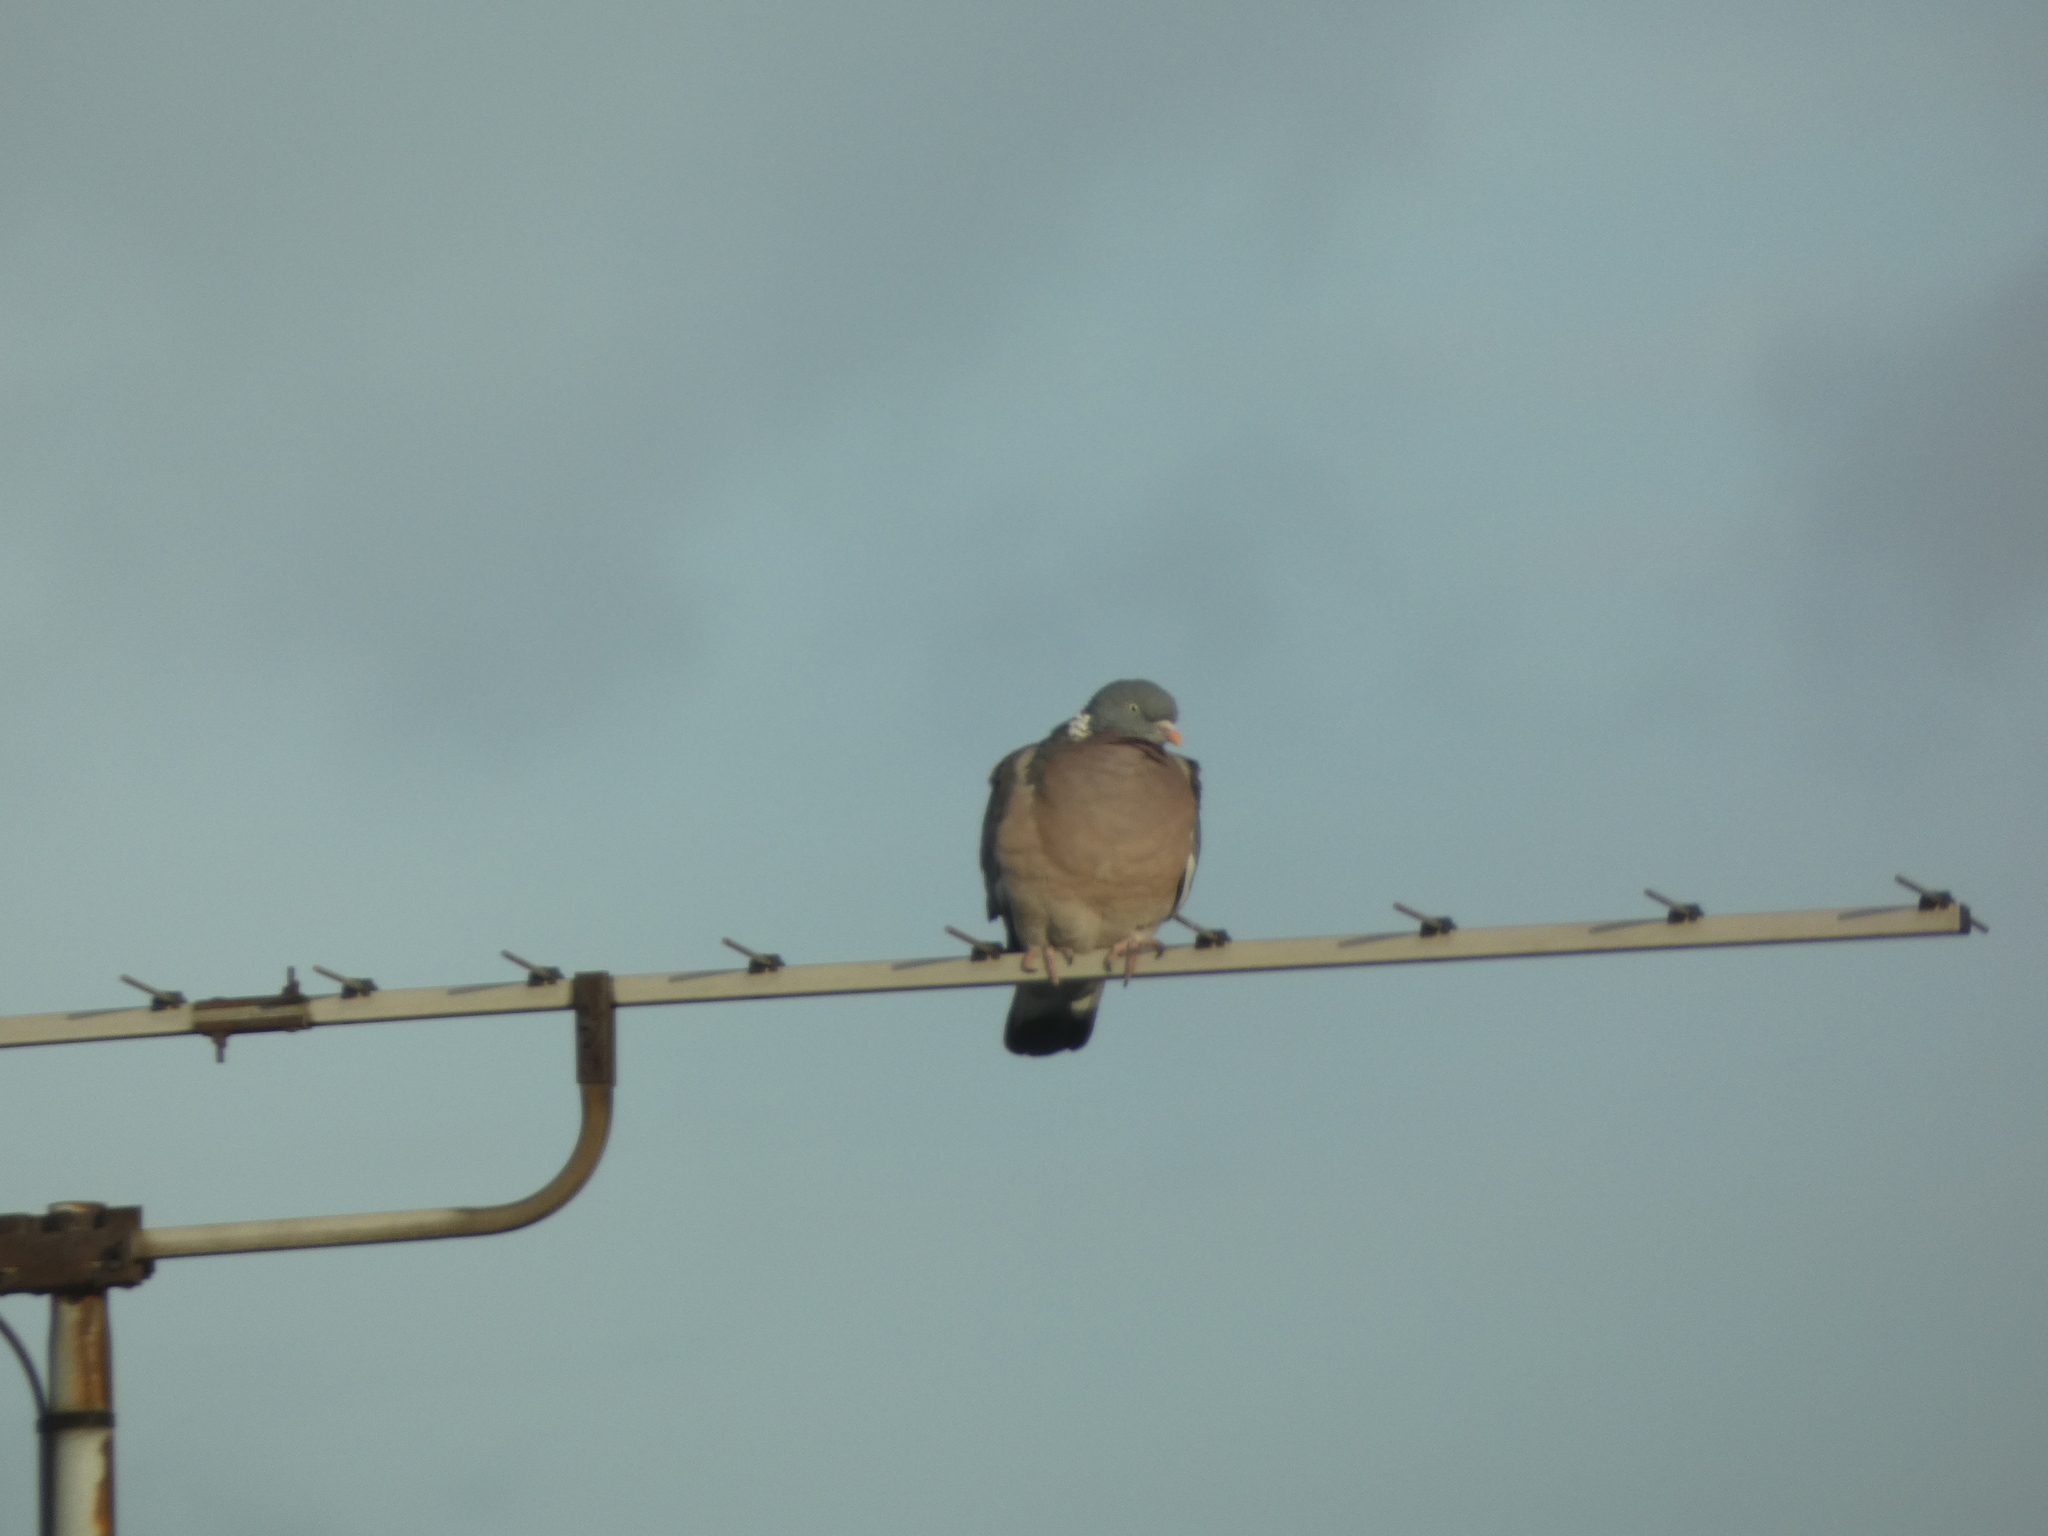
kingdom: Animalia
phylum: Chordata
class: Aves
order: Columbiformes
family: Columbidae
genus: Columba
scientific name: Columba palumbus
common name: Common wood pigeon
